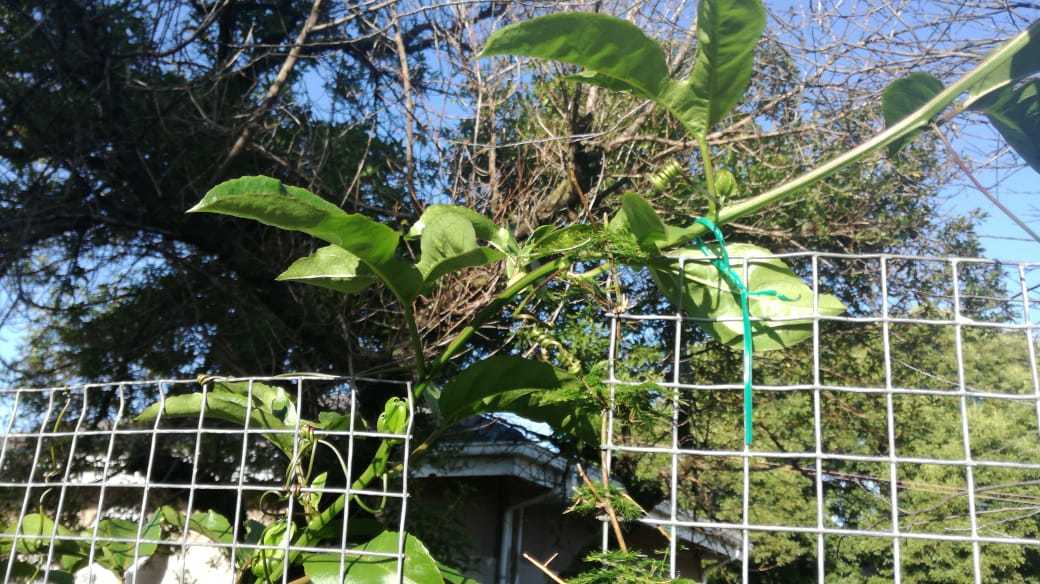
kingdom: Plantae
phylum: Tracheophyta
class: Magnoliopsida
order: Malpighiales
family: Passifloraceae
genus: Passiflora
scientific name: Passiflora edulis
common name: Purple granadilla
